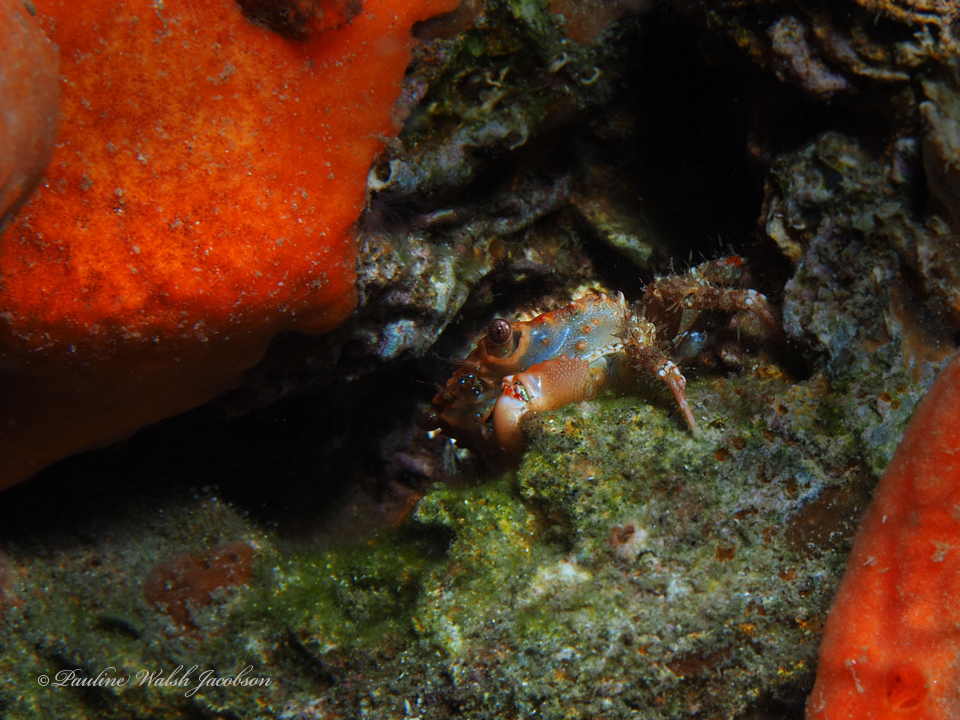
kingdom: Animalia
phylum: Arthropoda
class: Malacostraca
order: Decapoda
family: Mithracidae
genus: Mithraculus
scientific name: Mithraculus forceps
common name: Red-ridged clinging crab
